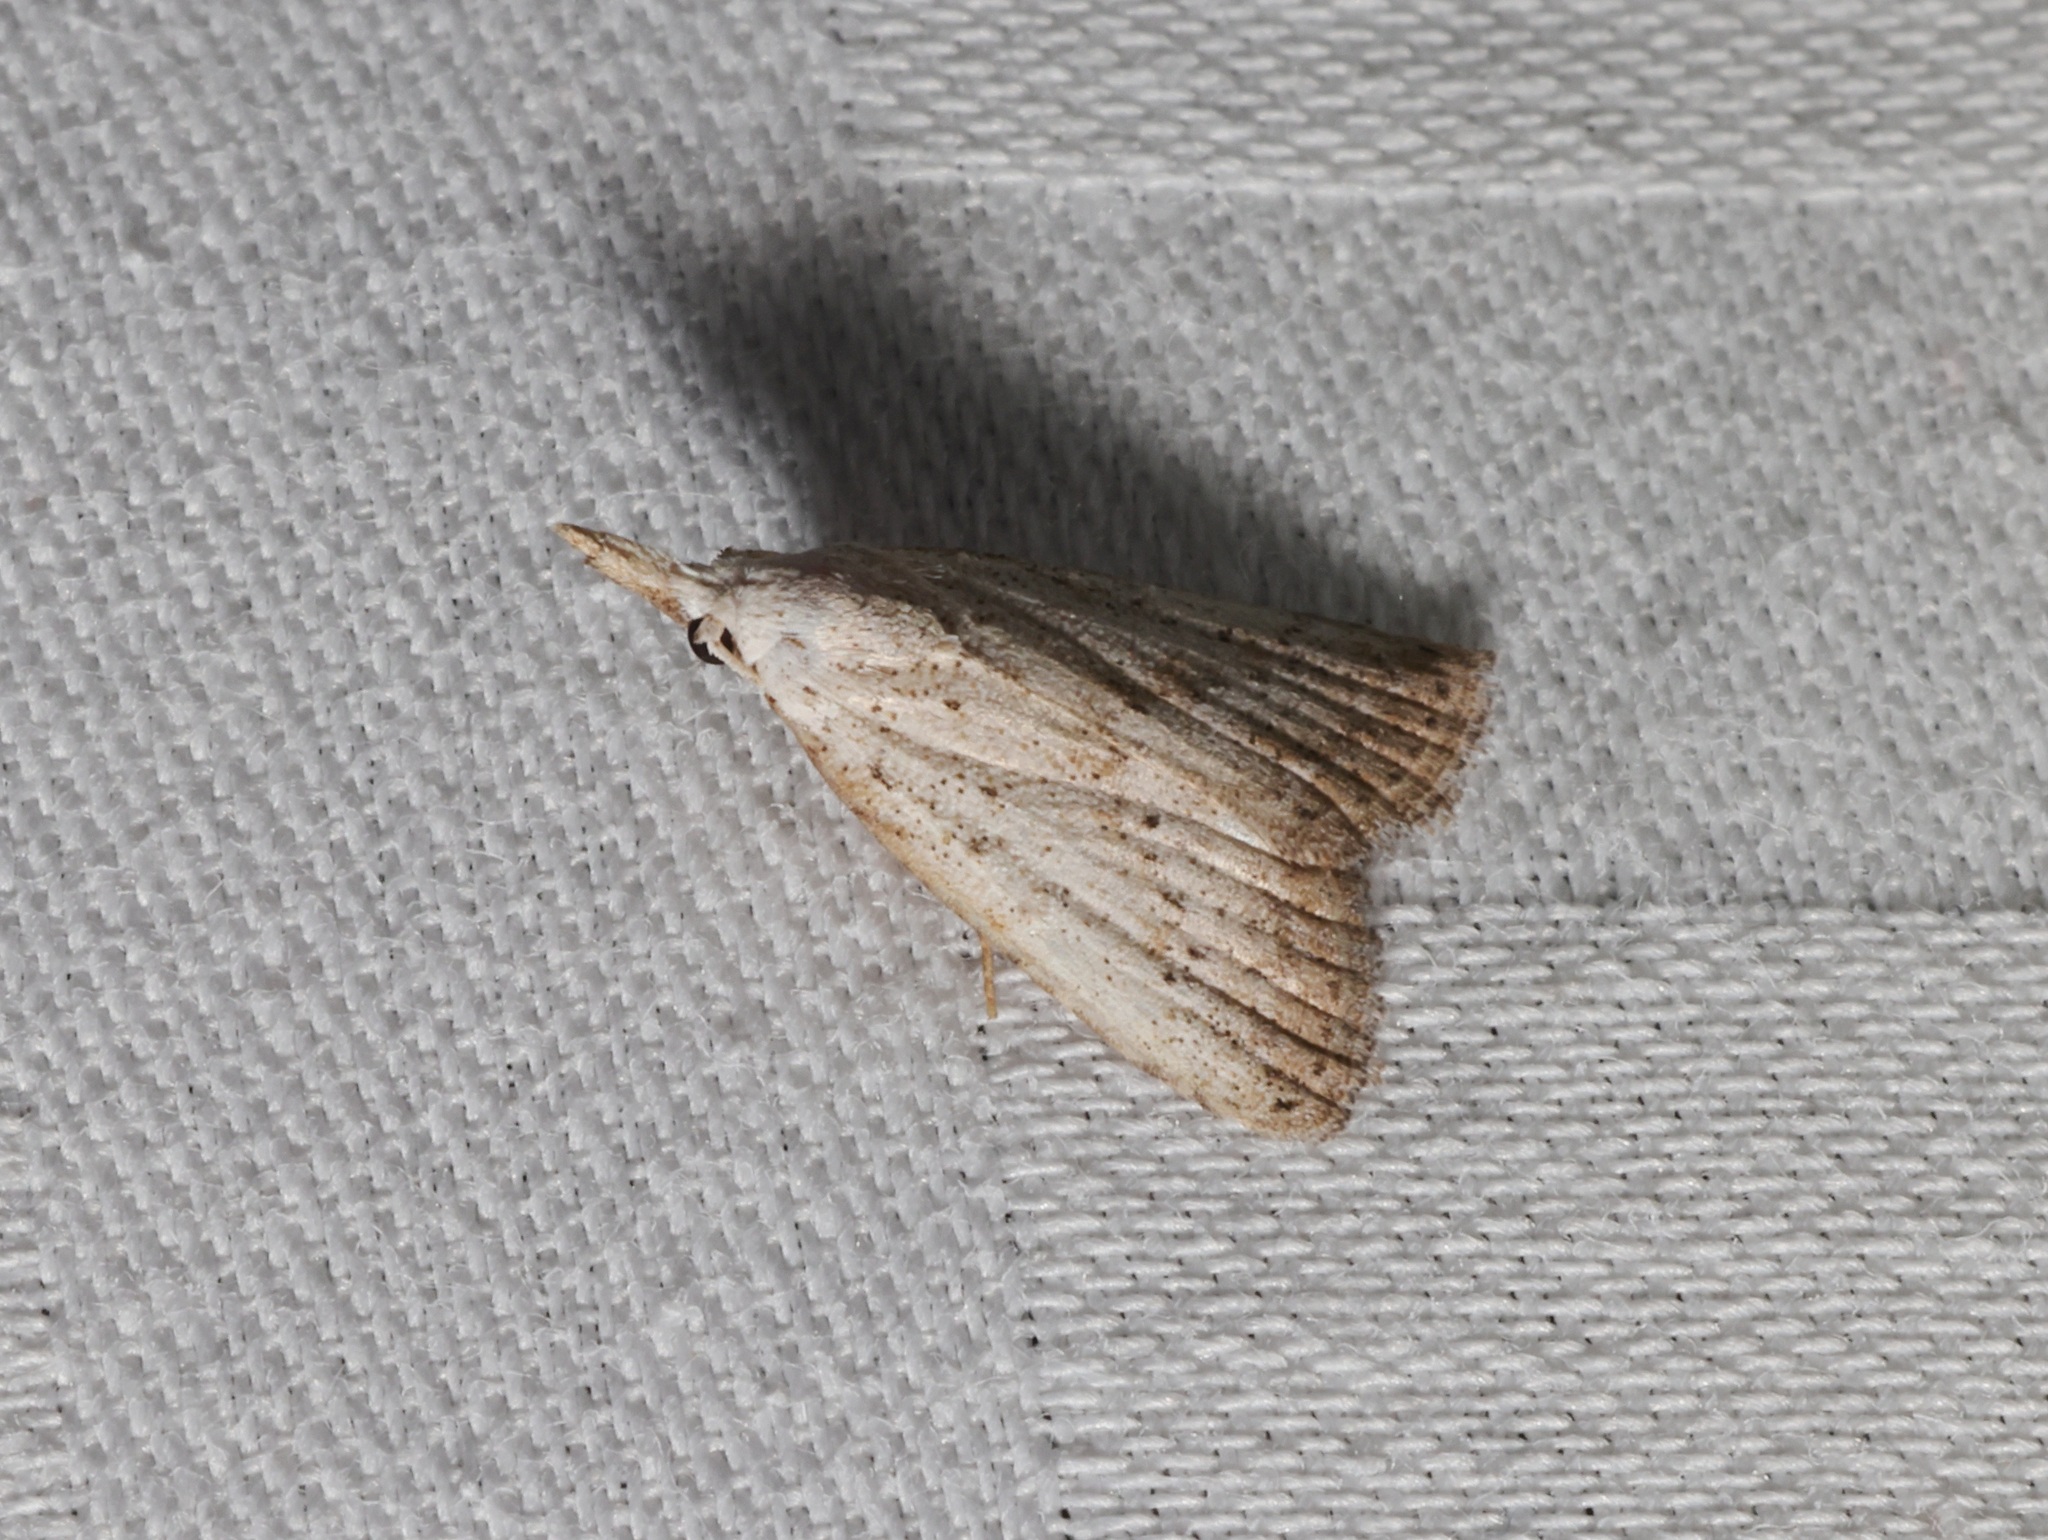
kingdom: Animalia
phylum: Arthropoda
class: Insecta
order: Lepidoptera
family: Nolidae
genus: Meganola
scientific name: Meganola brunellus
